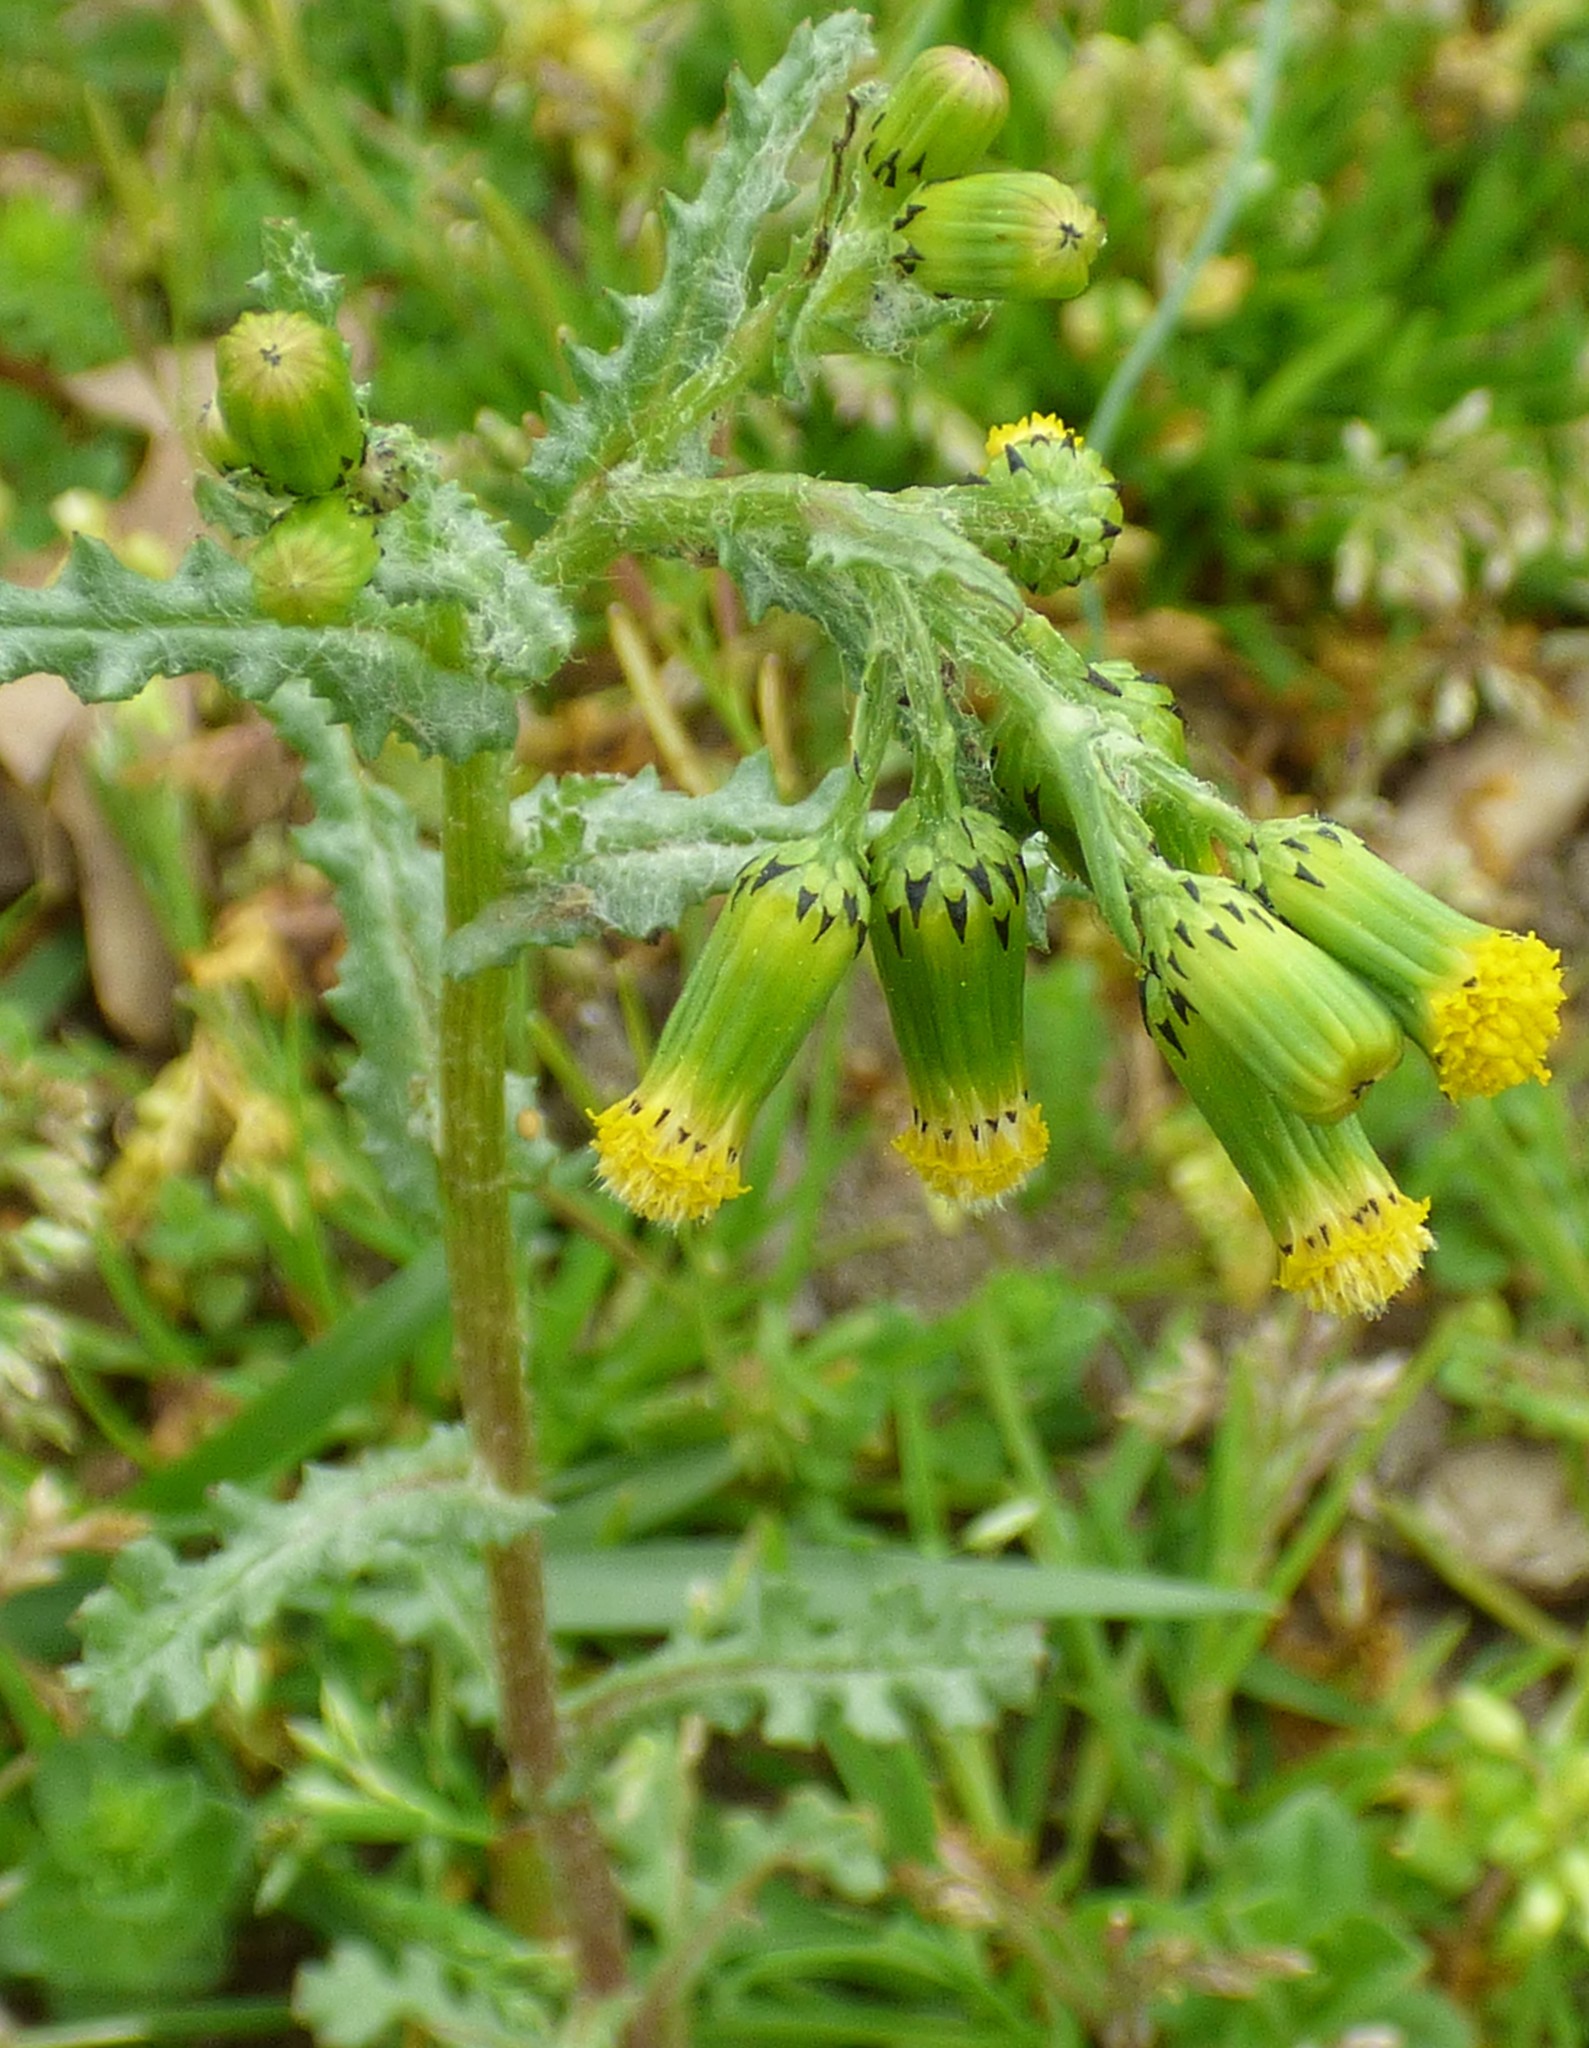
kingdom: Plantae
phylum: Tracheophyta
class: Magnoliopsida
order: Asterales
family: Asteraceae
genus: Senecio
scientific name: Senecio vulgaris
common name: Old-man-in-the-spring
